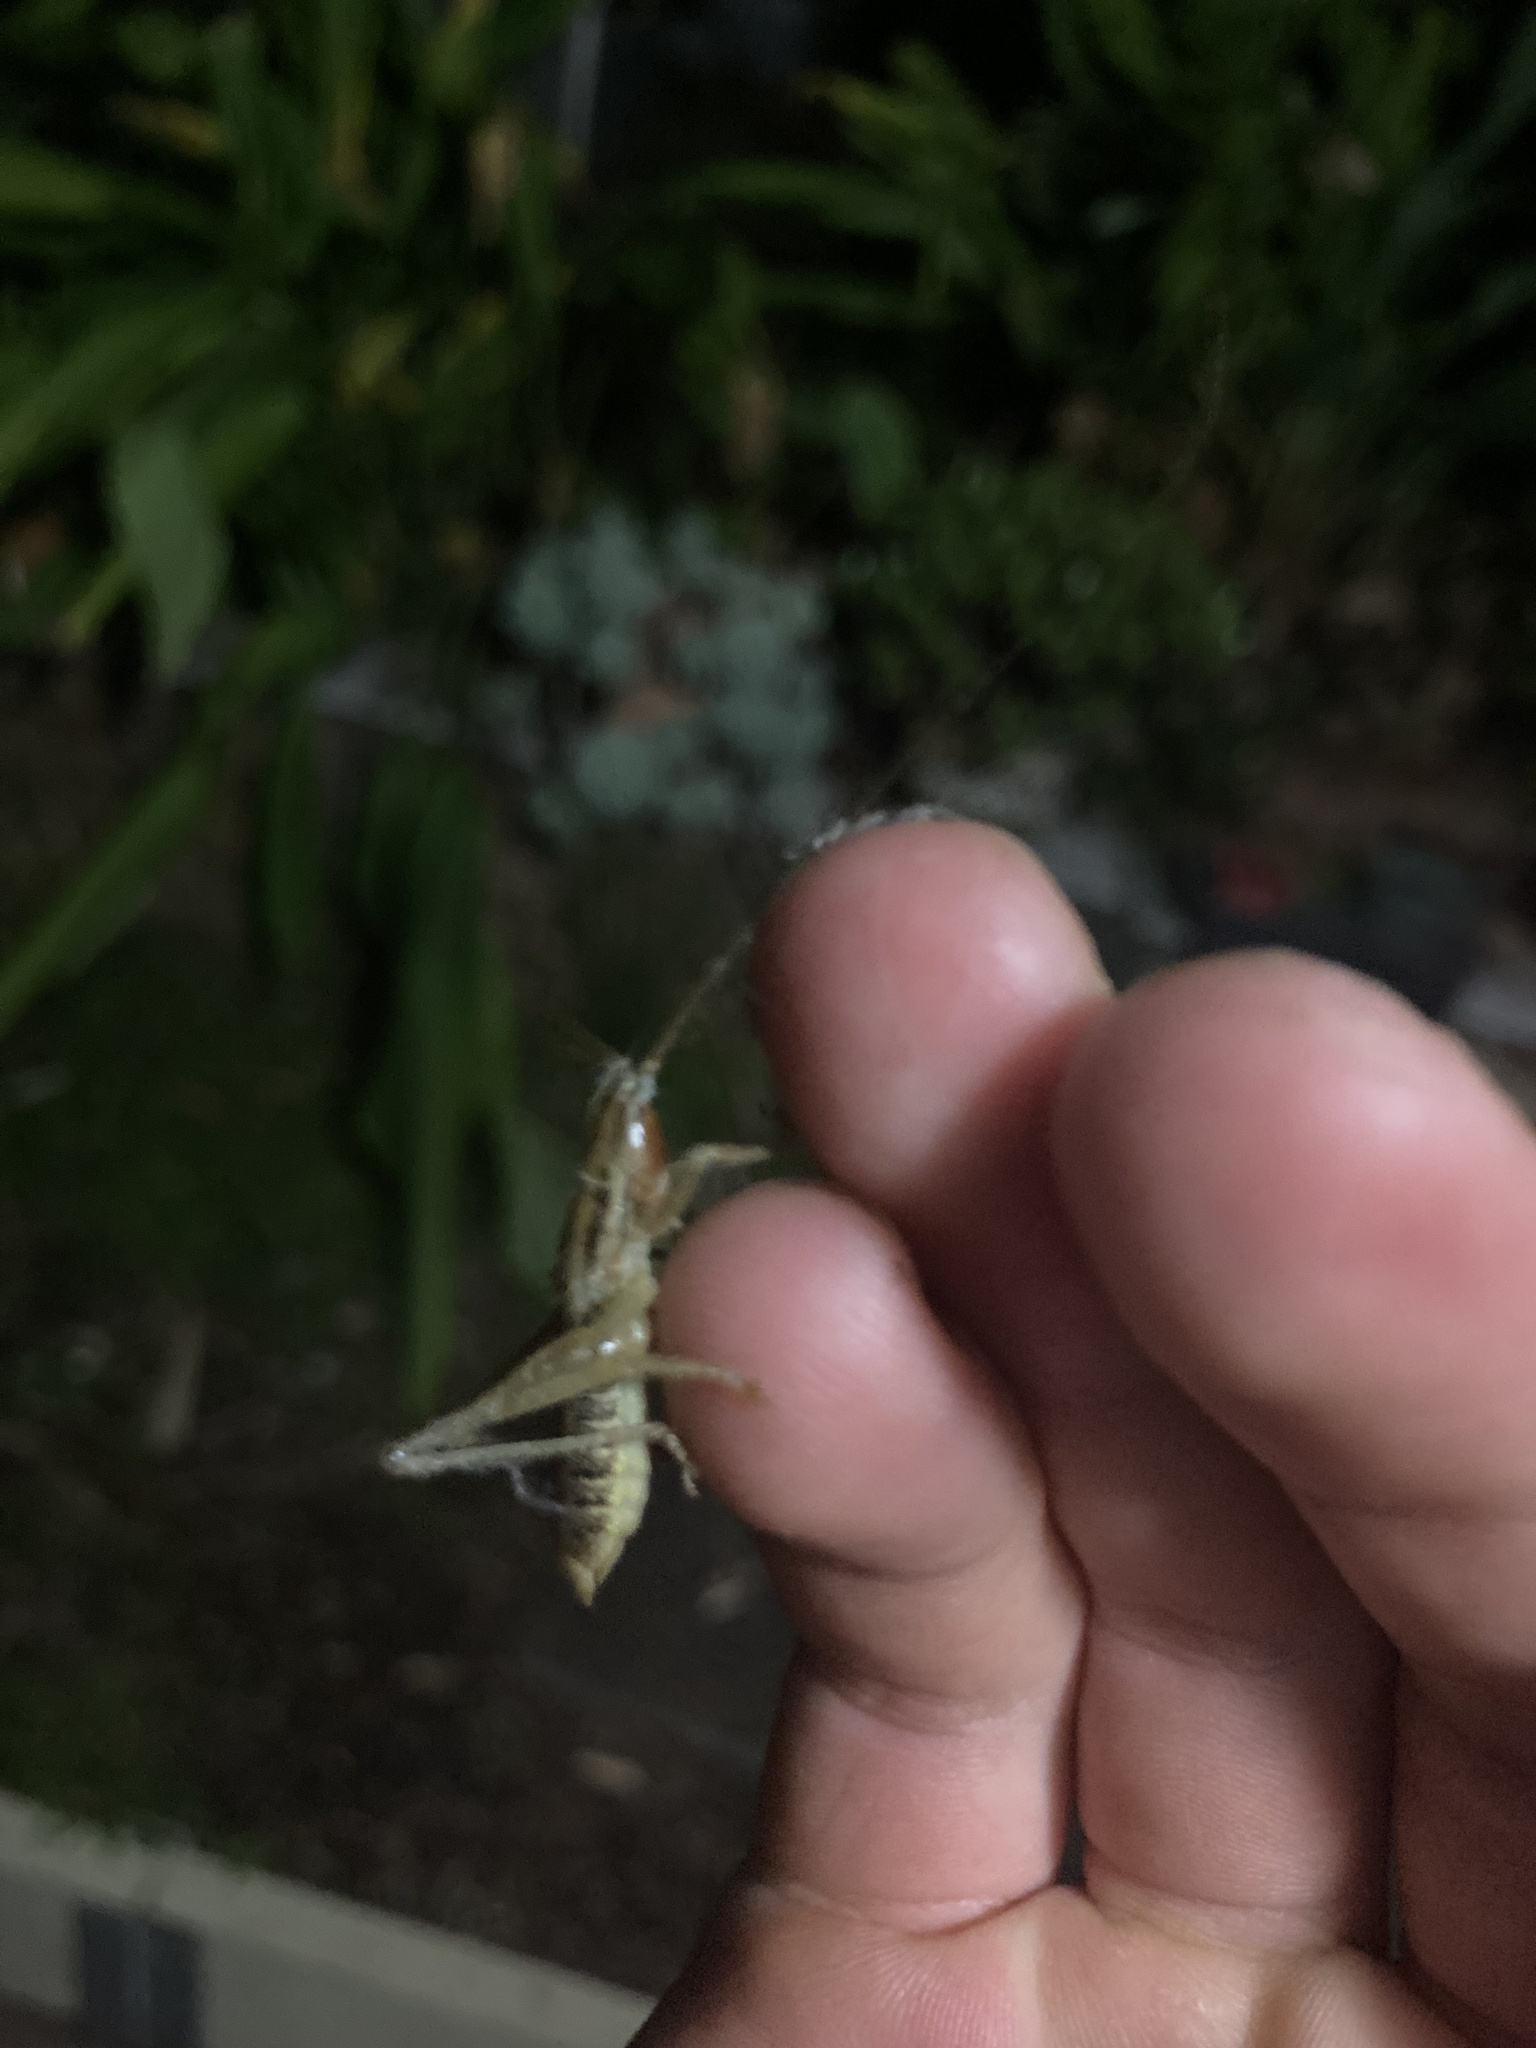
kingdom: Animalia
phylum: Arthropoda
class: Insecta
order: Orthoptera
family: Tettigoniidae
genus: Coptaspis
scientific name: Coptaspis brevipennis
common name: Sidney woodland katydid
